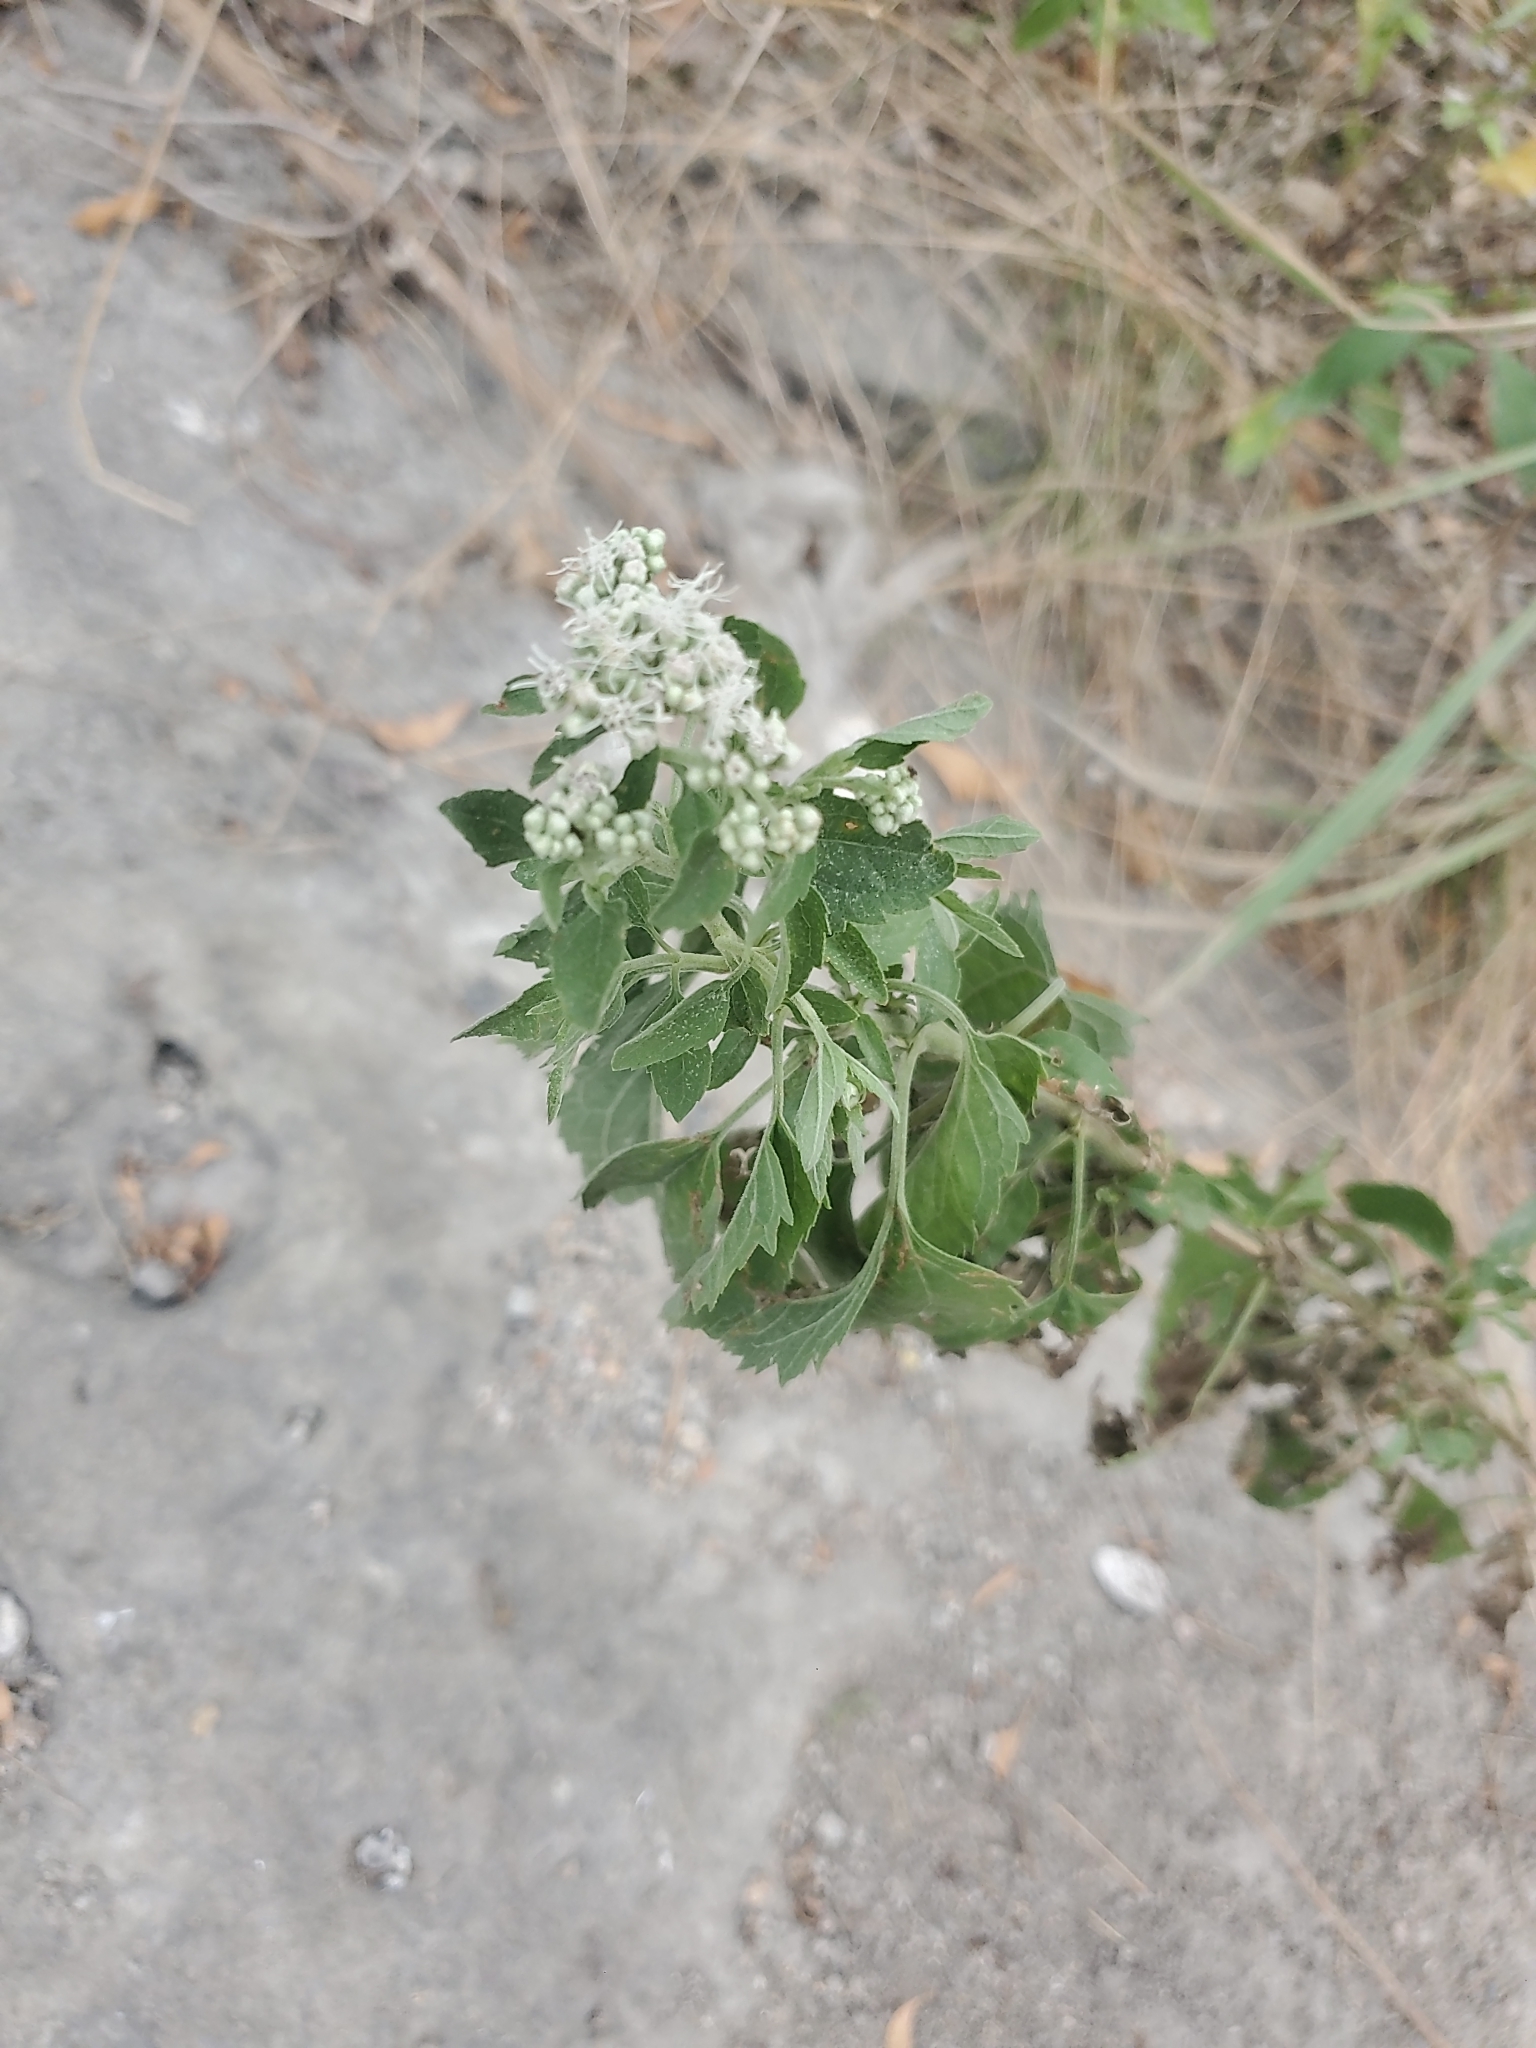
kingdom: Plantae
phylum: Tracheophyta
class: Magnoliopsida
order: Asterales
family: Asteraceae
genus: Eupatorium
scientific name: Eupatorium serotinum
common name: Late boneset
